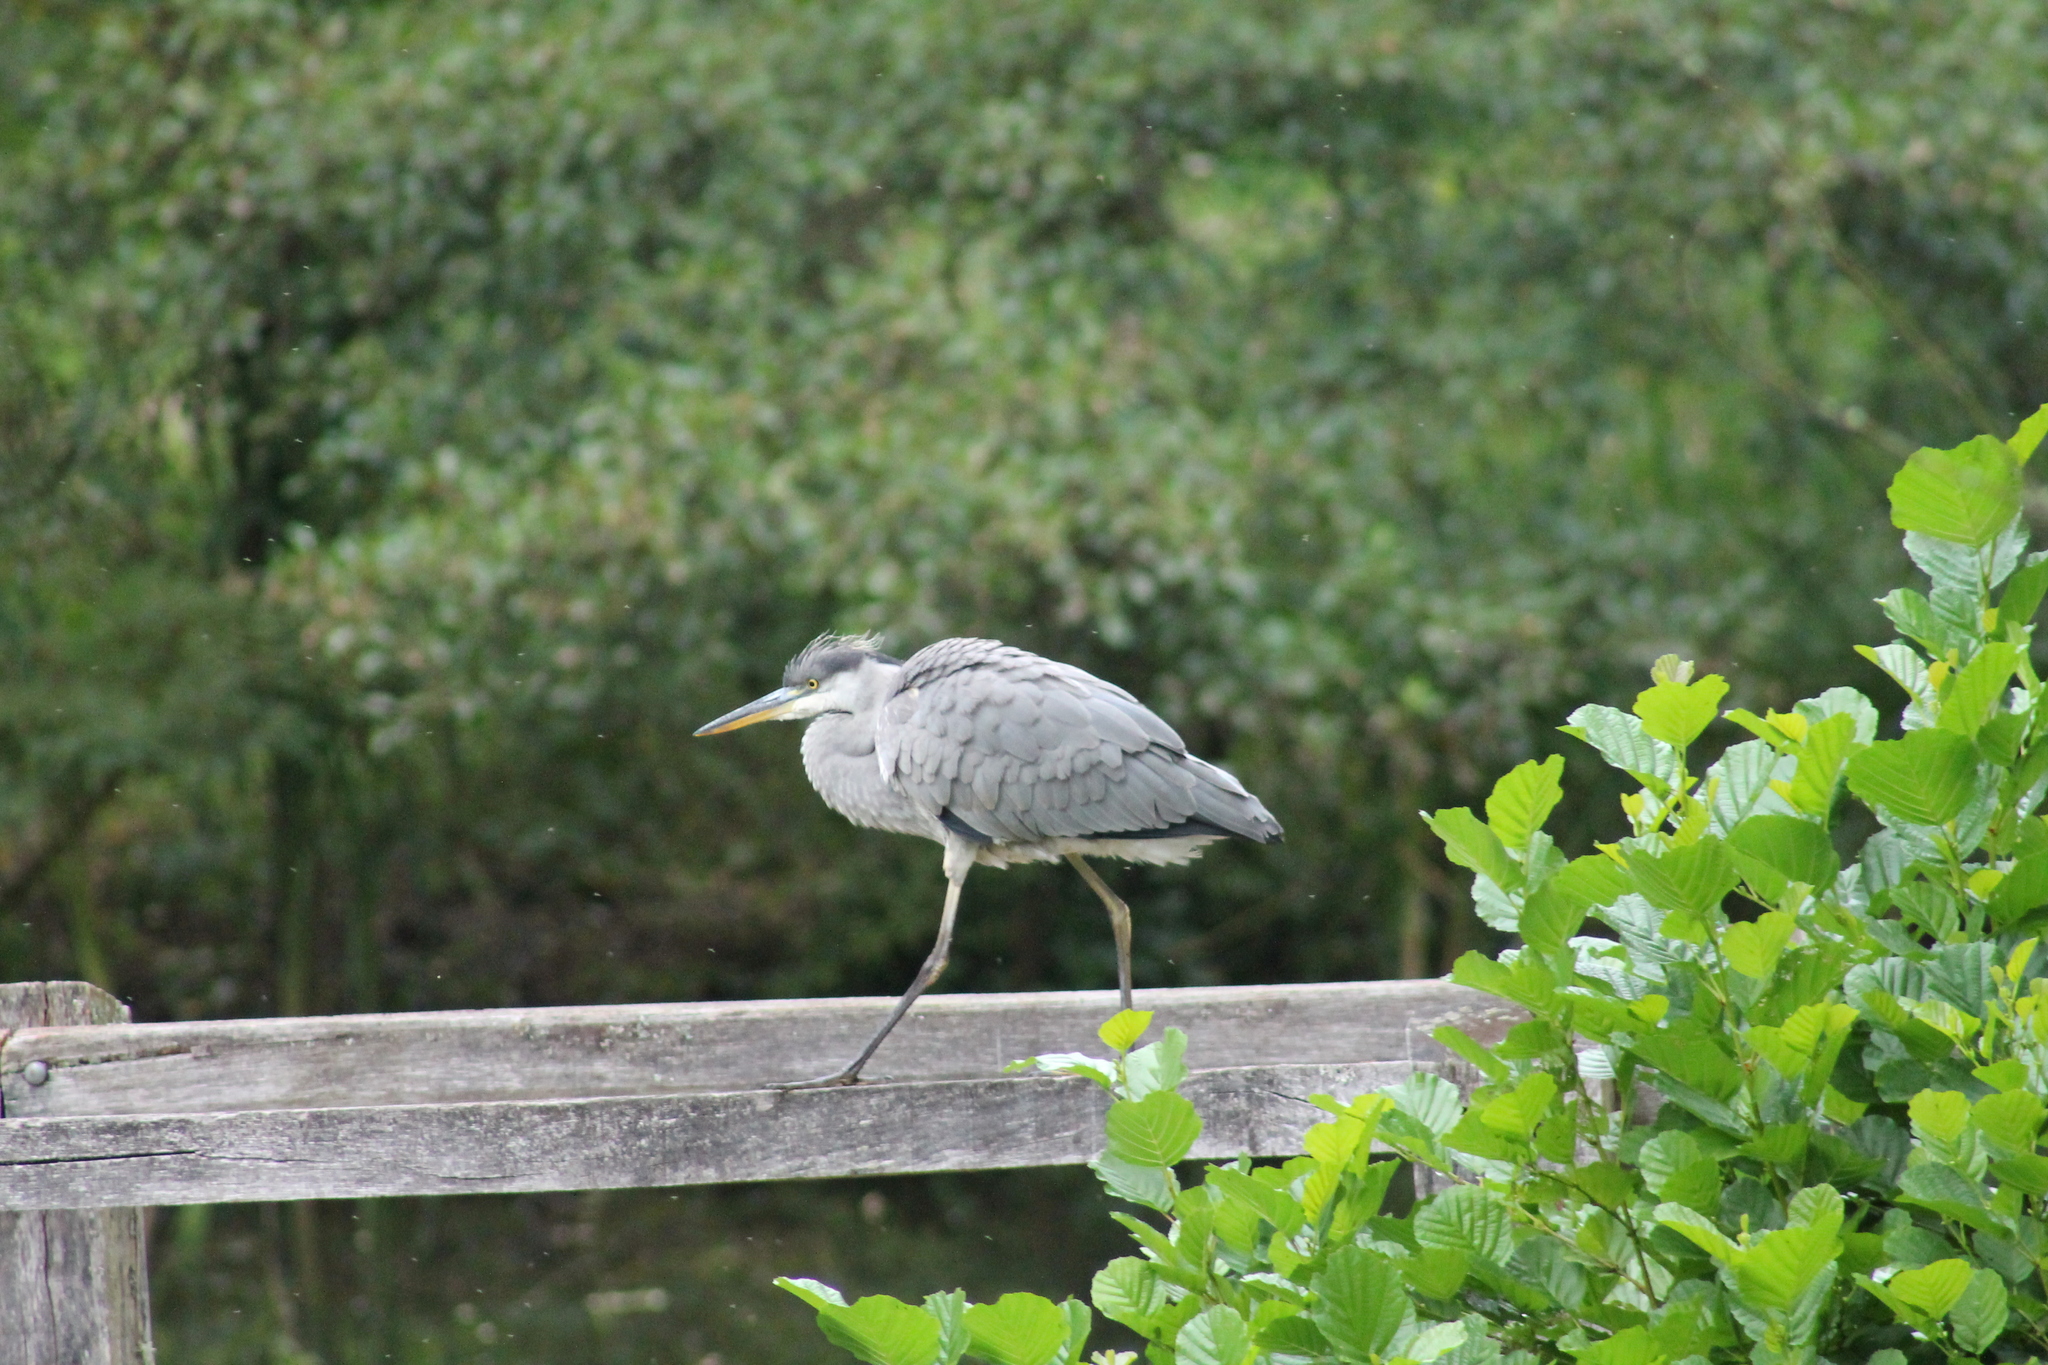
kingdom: Animalia
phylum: Chordata
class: Aves
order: Pelecaniformes
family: Ardeidae
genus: Ardea
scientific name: Ardea cinerea
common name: Grey heron
